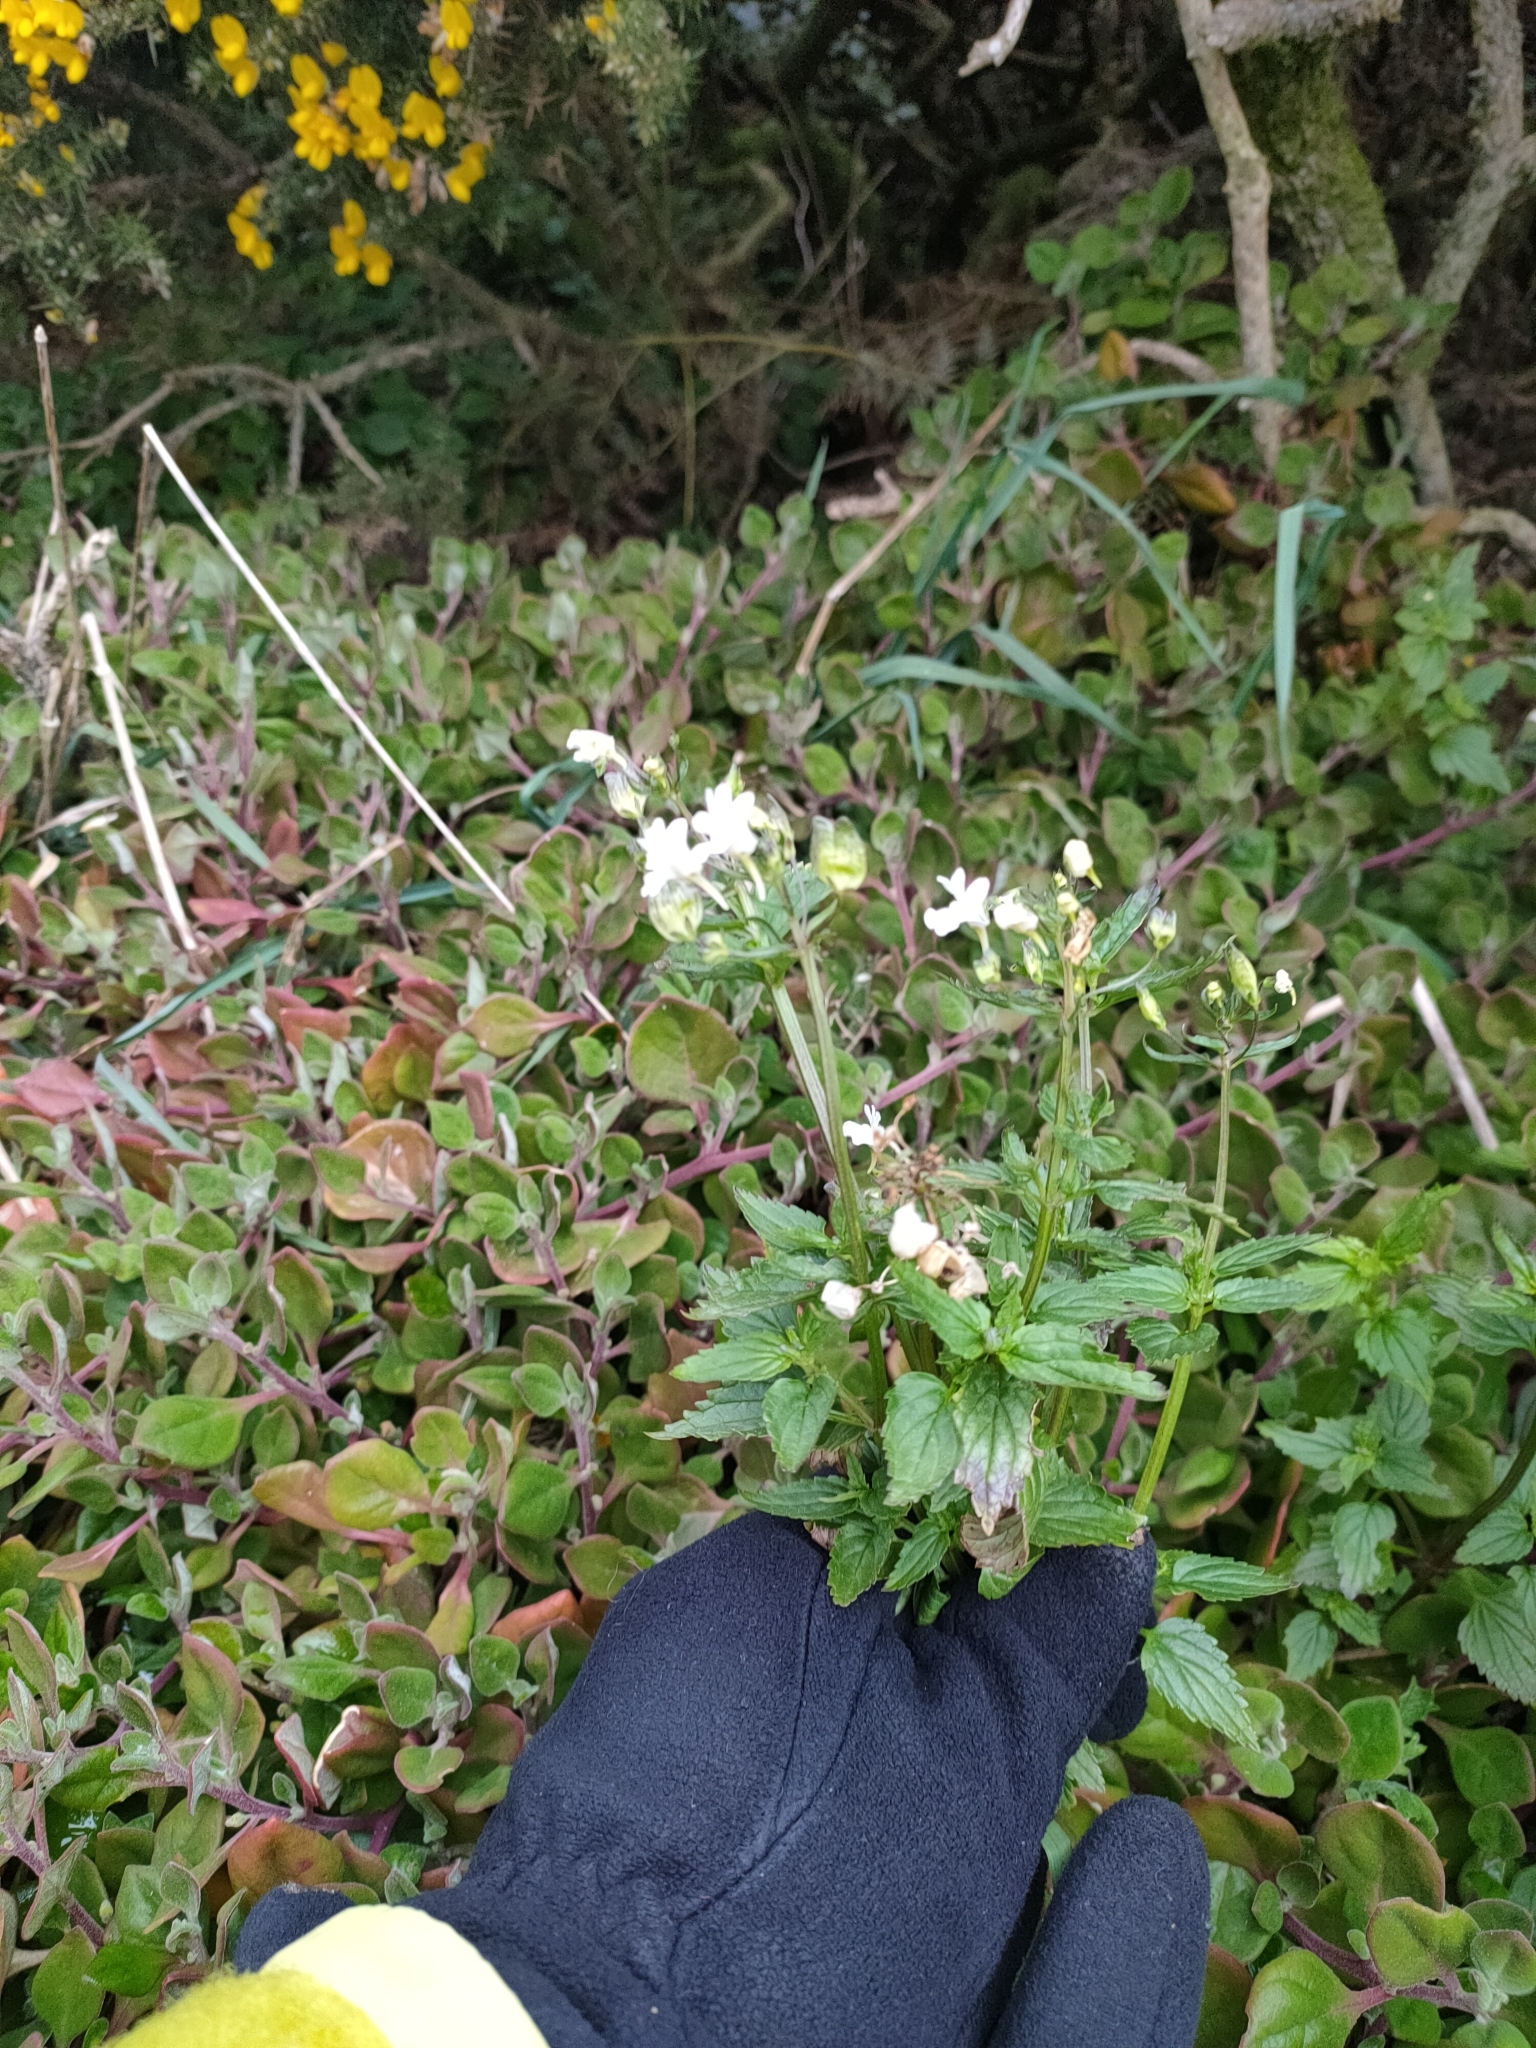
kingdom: Plantae
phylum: Tracheophyta
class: Magnoliopsida
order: Lamiales
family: Scrophulariaceae
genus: Nemesia
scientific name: Nemesia floribunda
